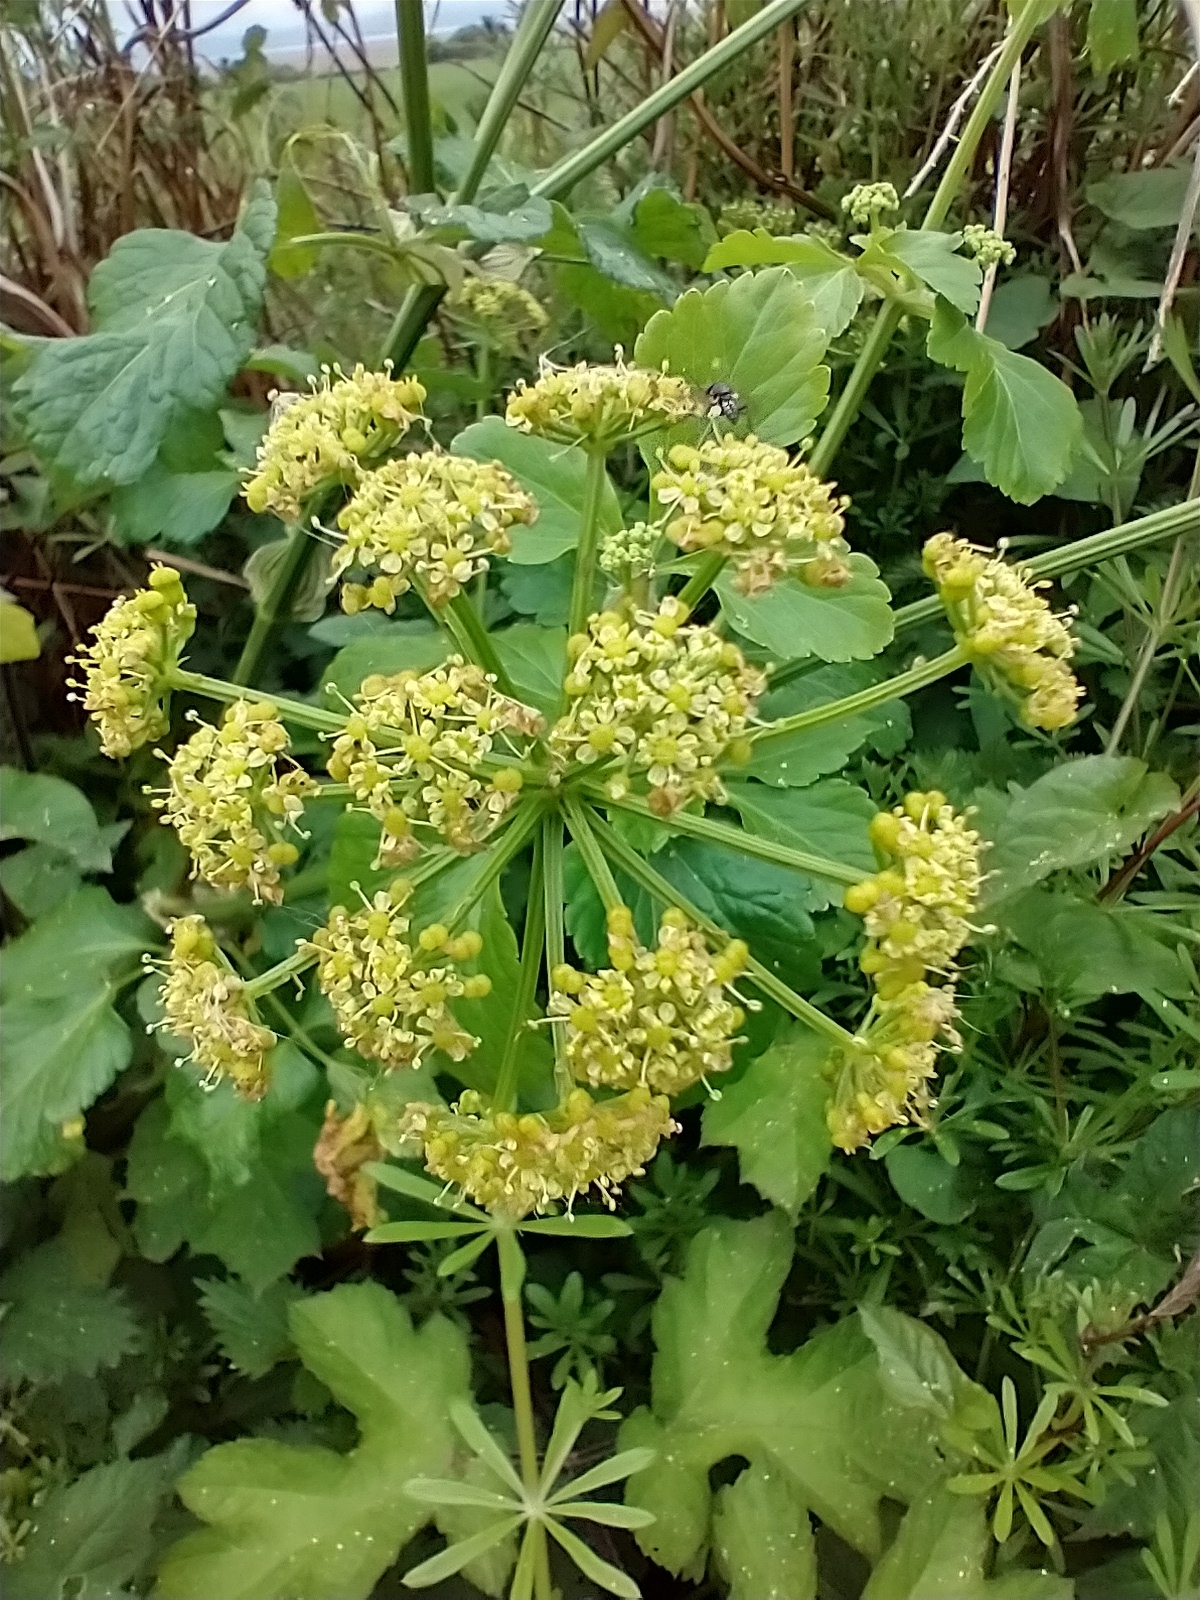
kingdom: Plantae
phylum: Tracheophyta
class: Magnoliopsida
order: Apiales
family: Apiaceae
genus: Smyrnium
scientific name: Smyrnium olusatrum
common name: Alexanders
